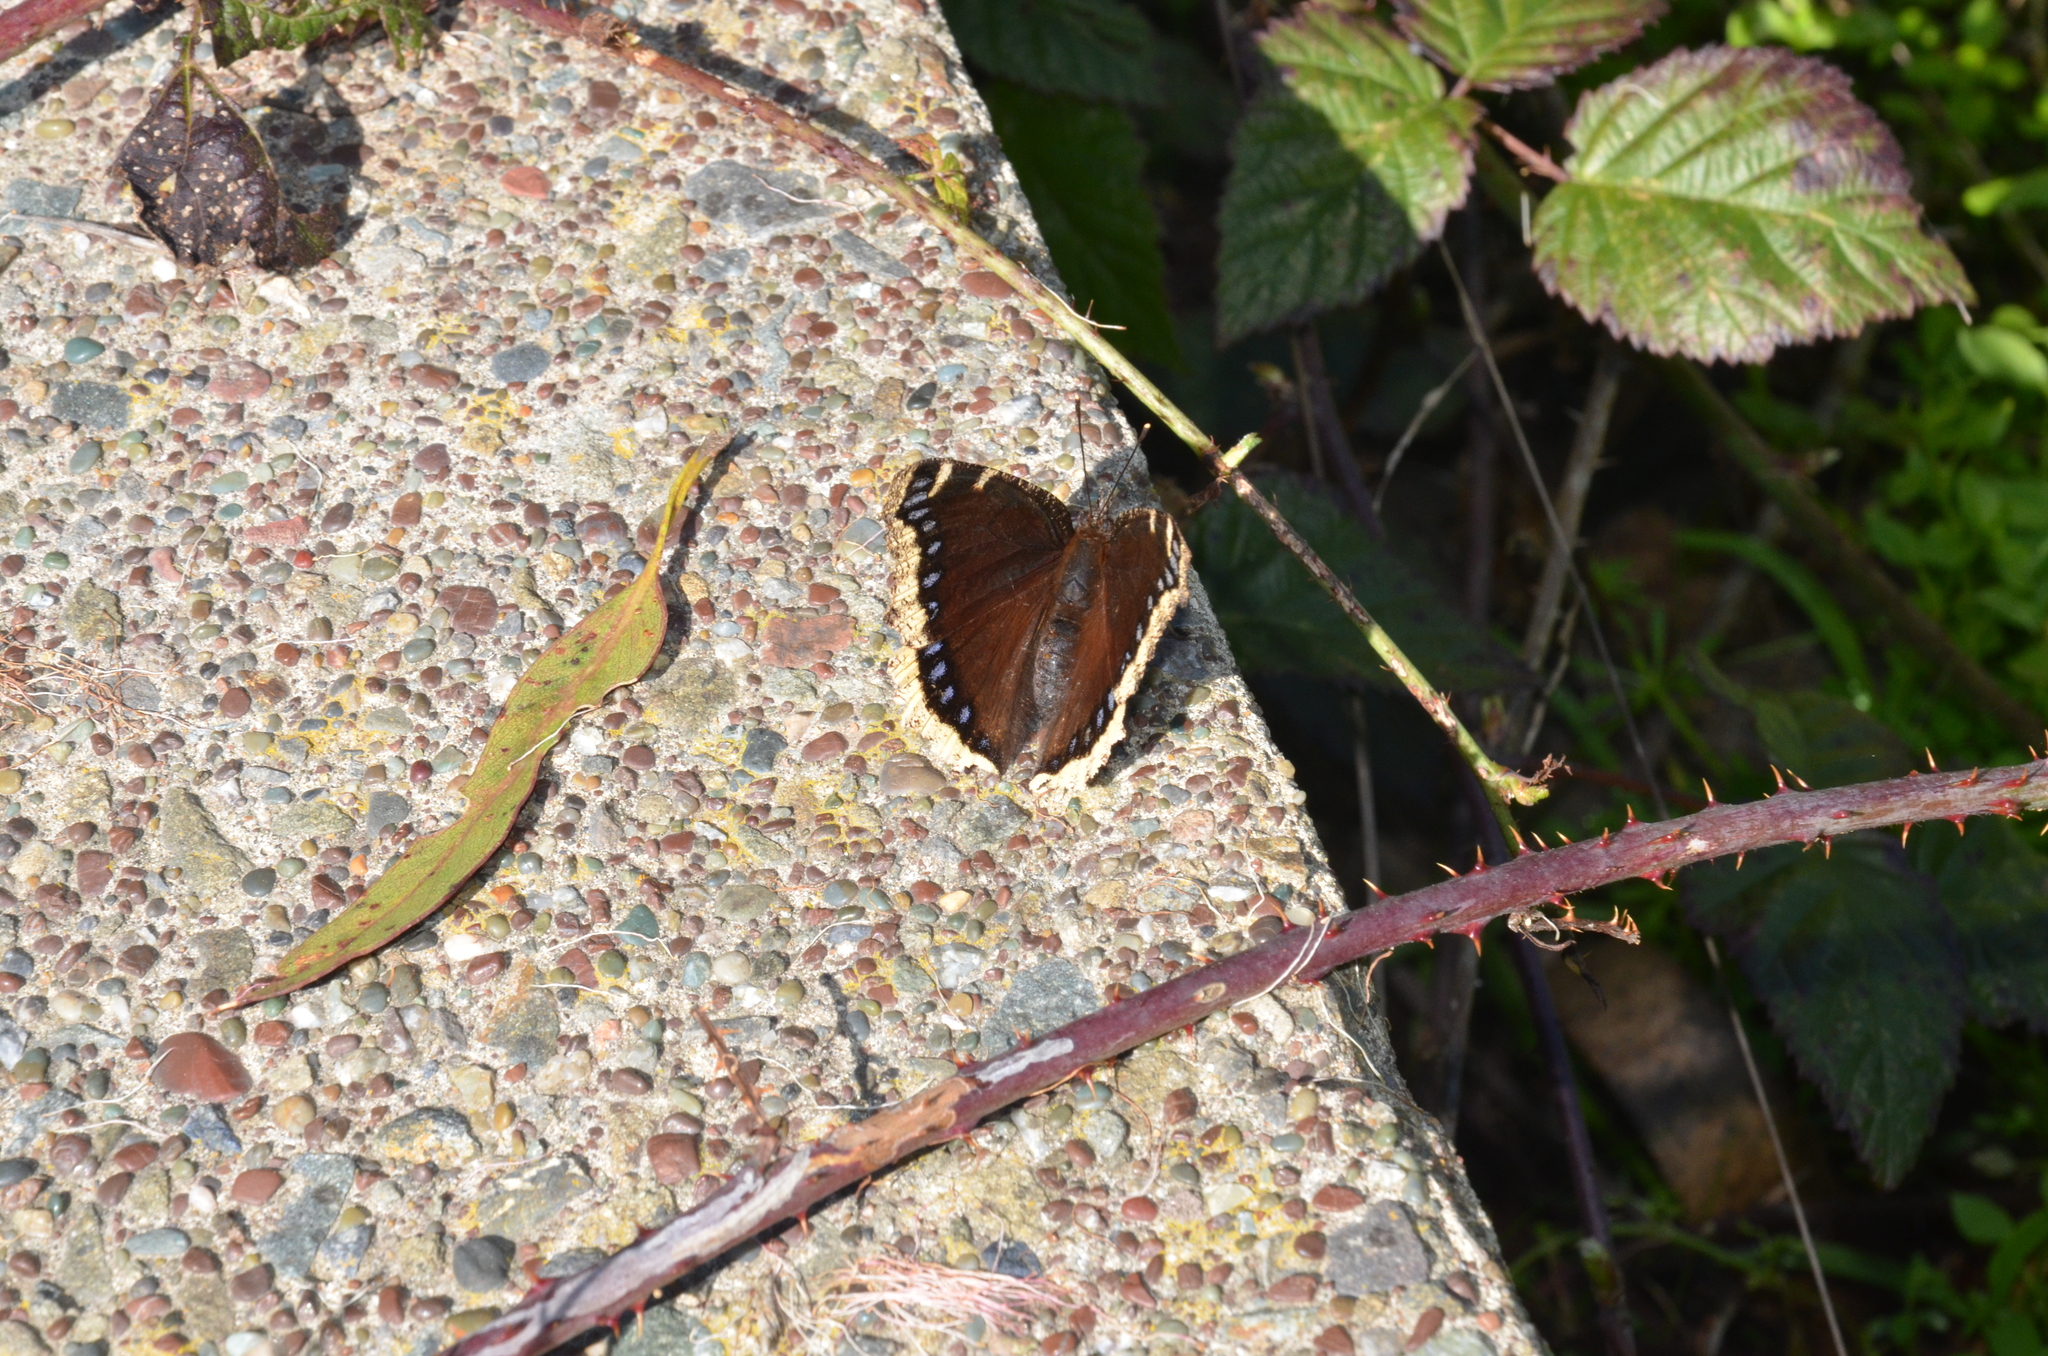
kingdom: Animalia
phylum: Arthropoda
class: Insecta
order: Lepidoptera
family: Nymphalidae
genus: Nymphalis
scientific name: Nymphalis antiopa
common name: Camberwell beauty
